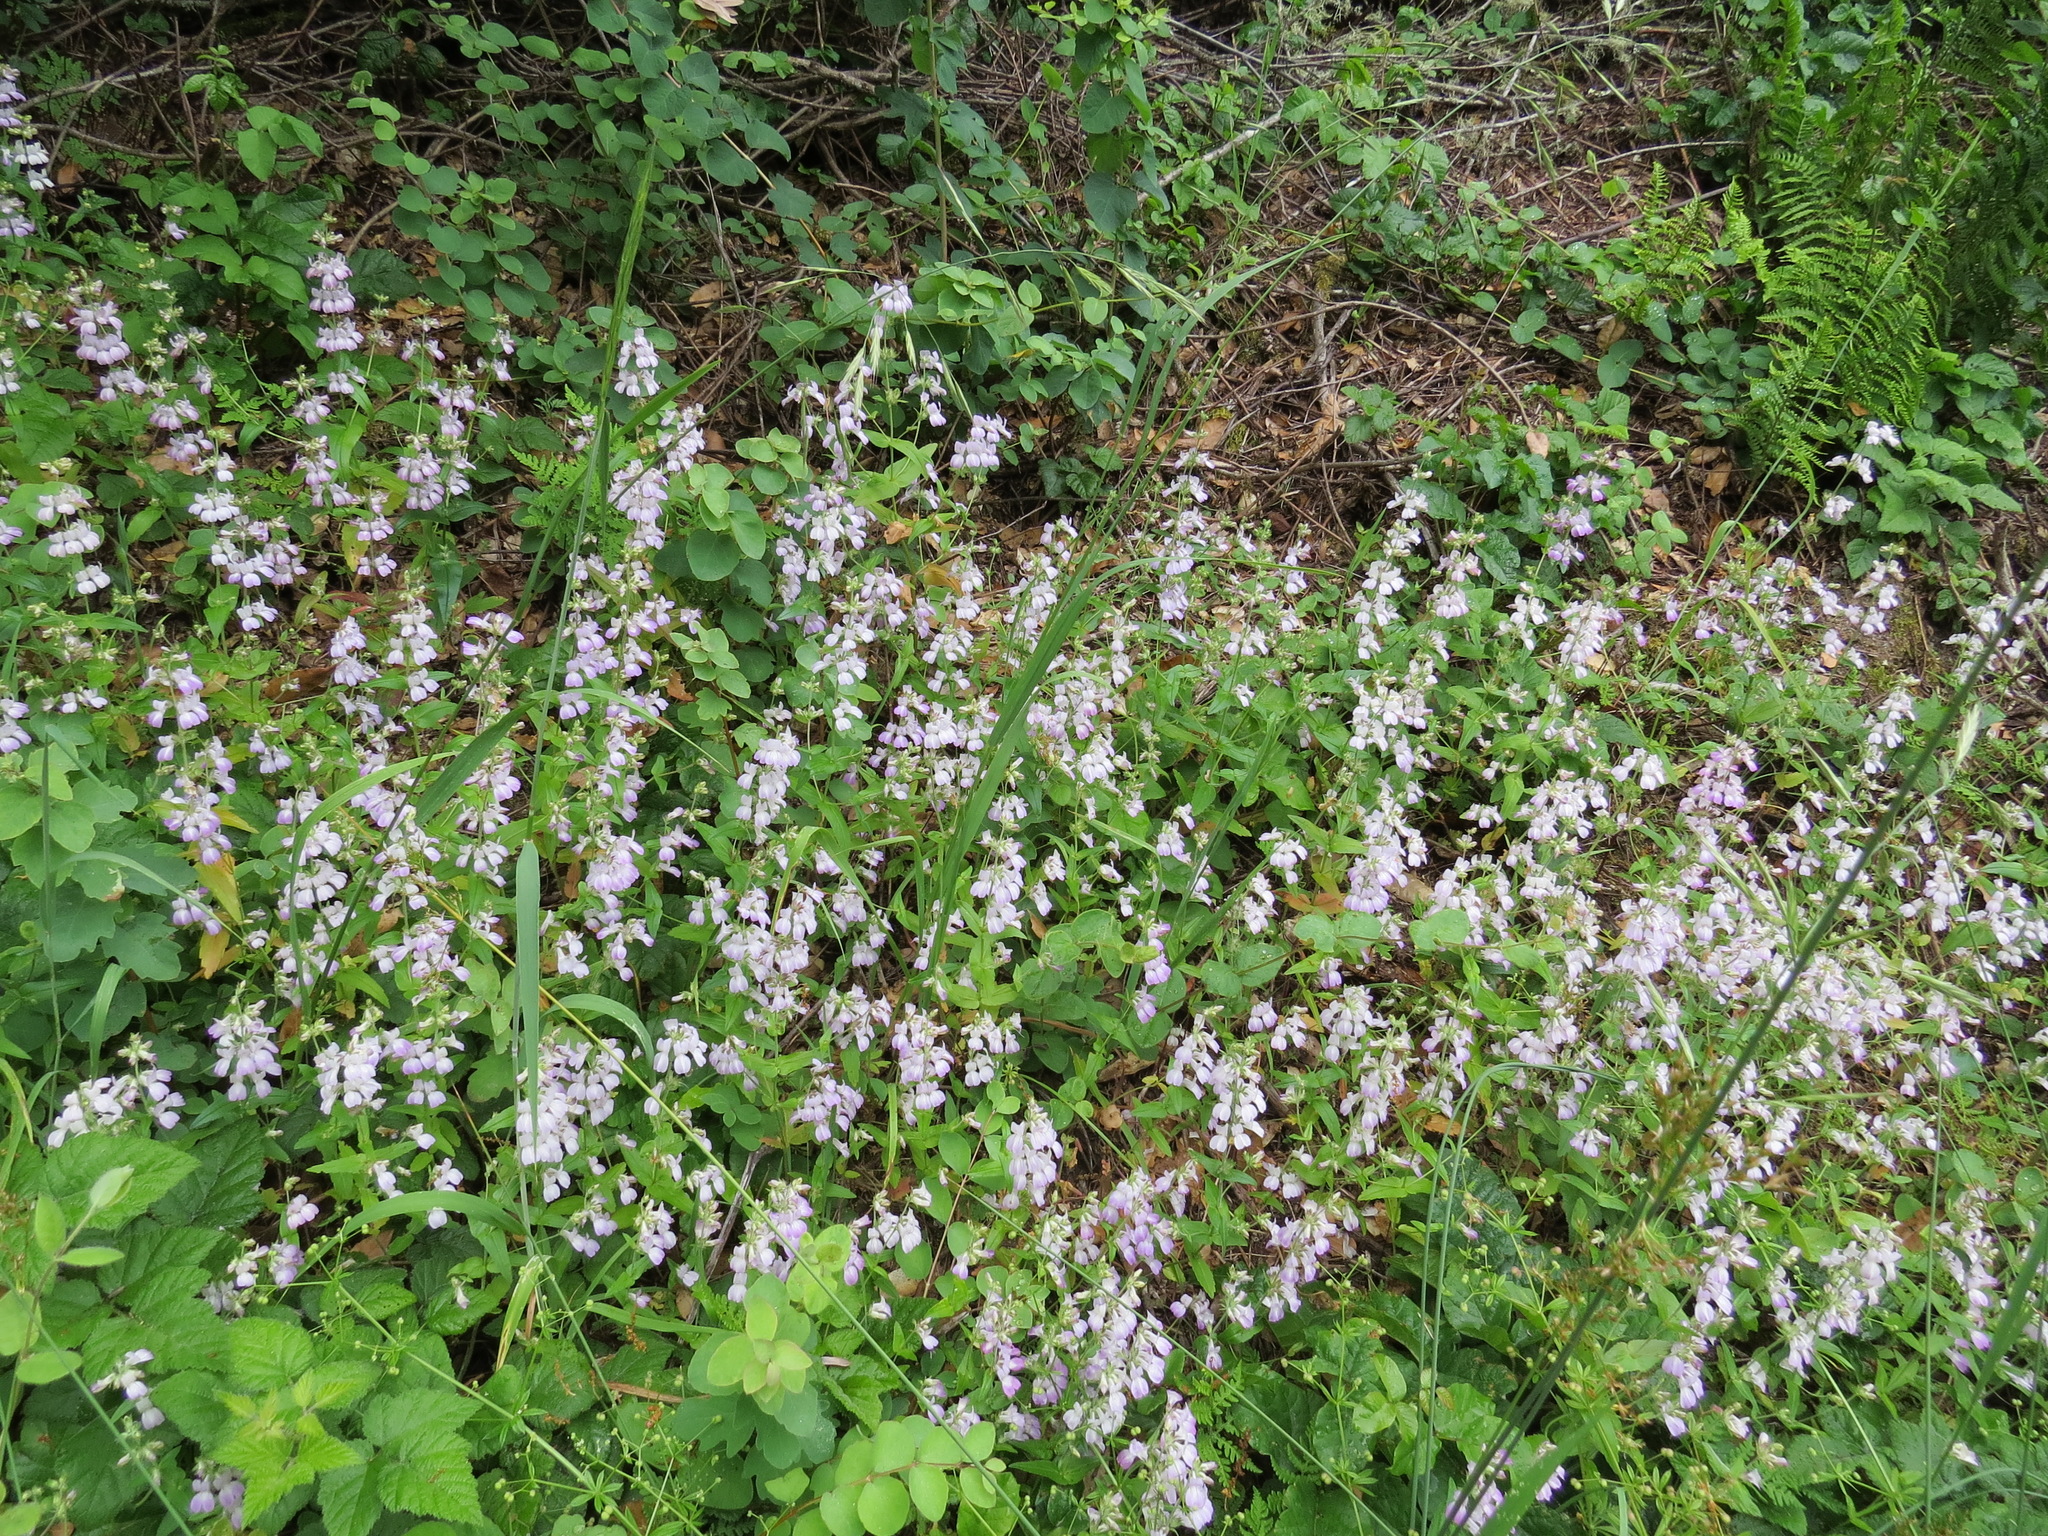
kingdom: Plantae
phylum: Tracheophyta
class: Magnoliopsida
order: Lamiales
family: Plantaginaceae
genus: Collinsia
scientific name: Collinsia heterophylla
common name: Chinese-houses
